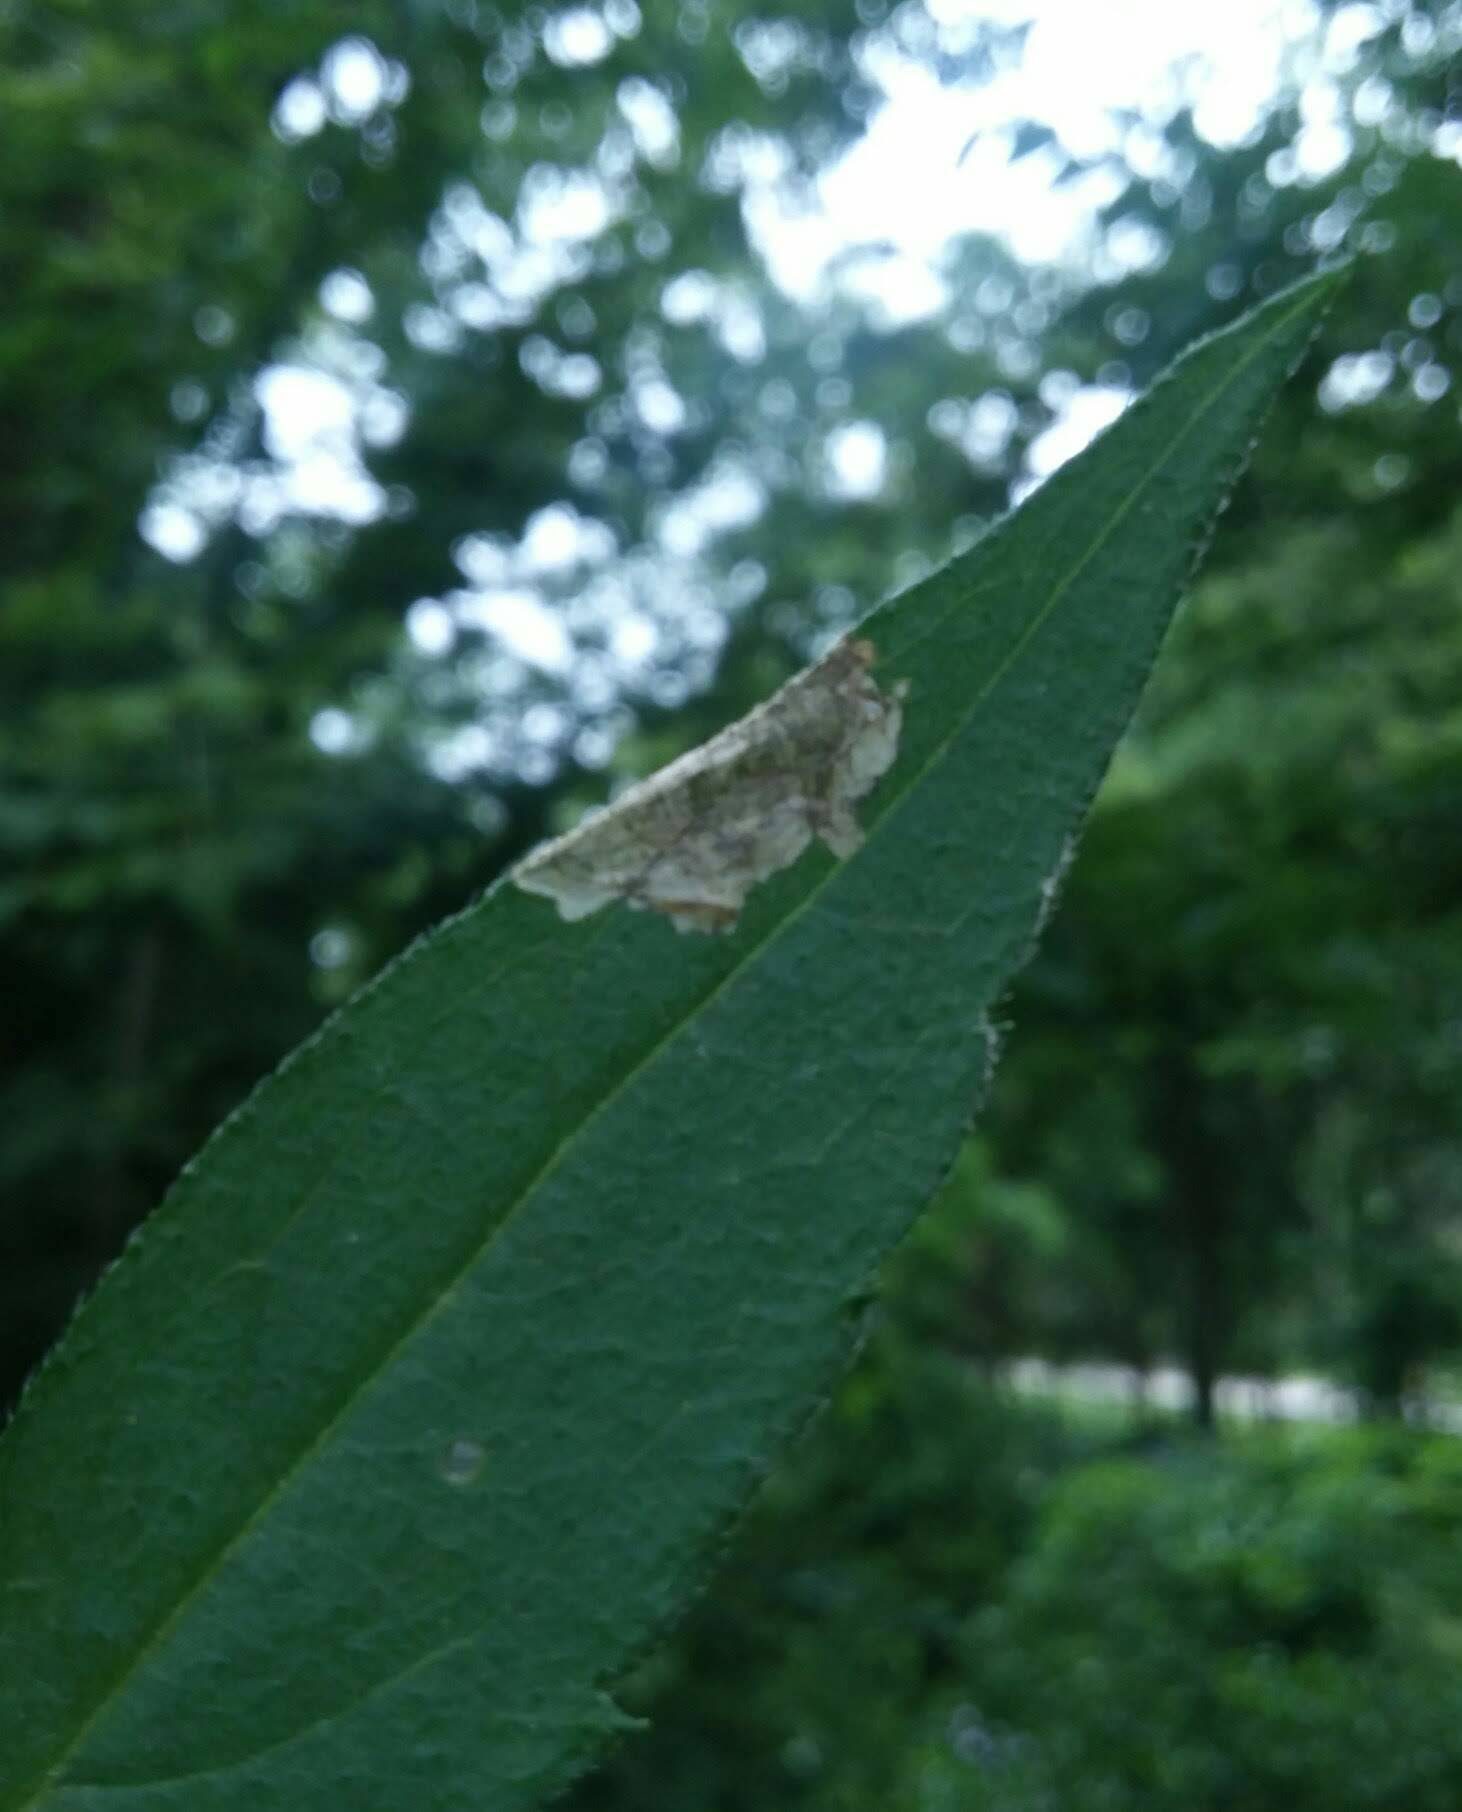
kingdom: Animalia
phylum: Arthropoda
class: Insecta
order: Coleoptera
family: Chrysomelidae
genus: Sumitrosis
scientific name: Sumitrosis inaequalis
